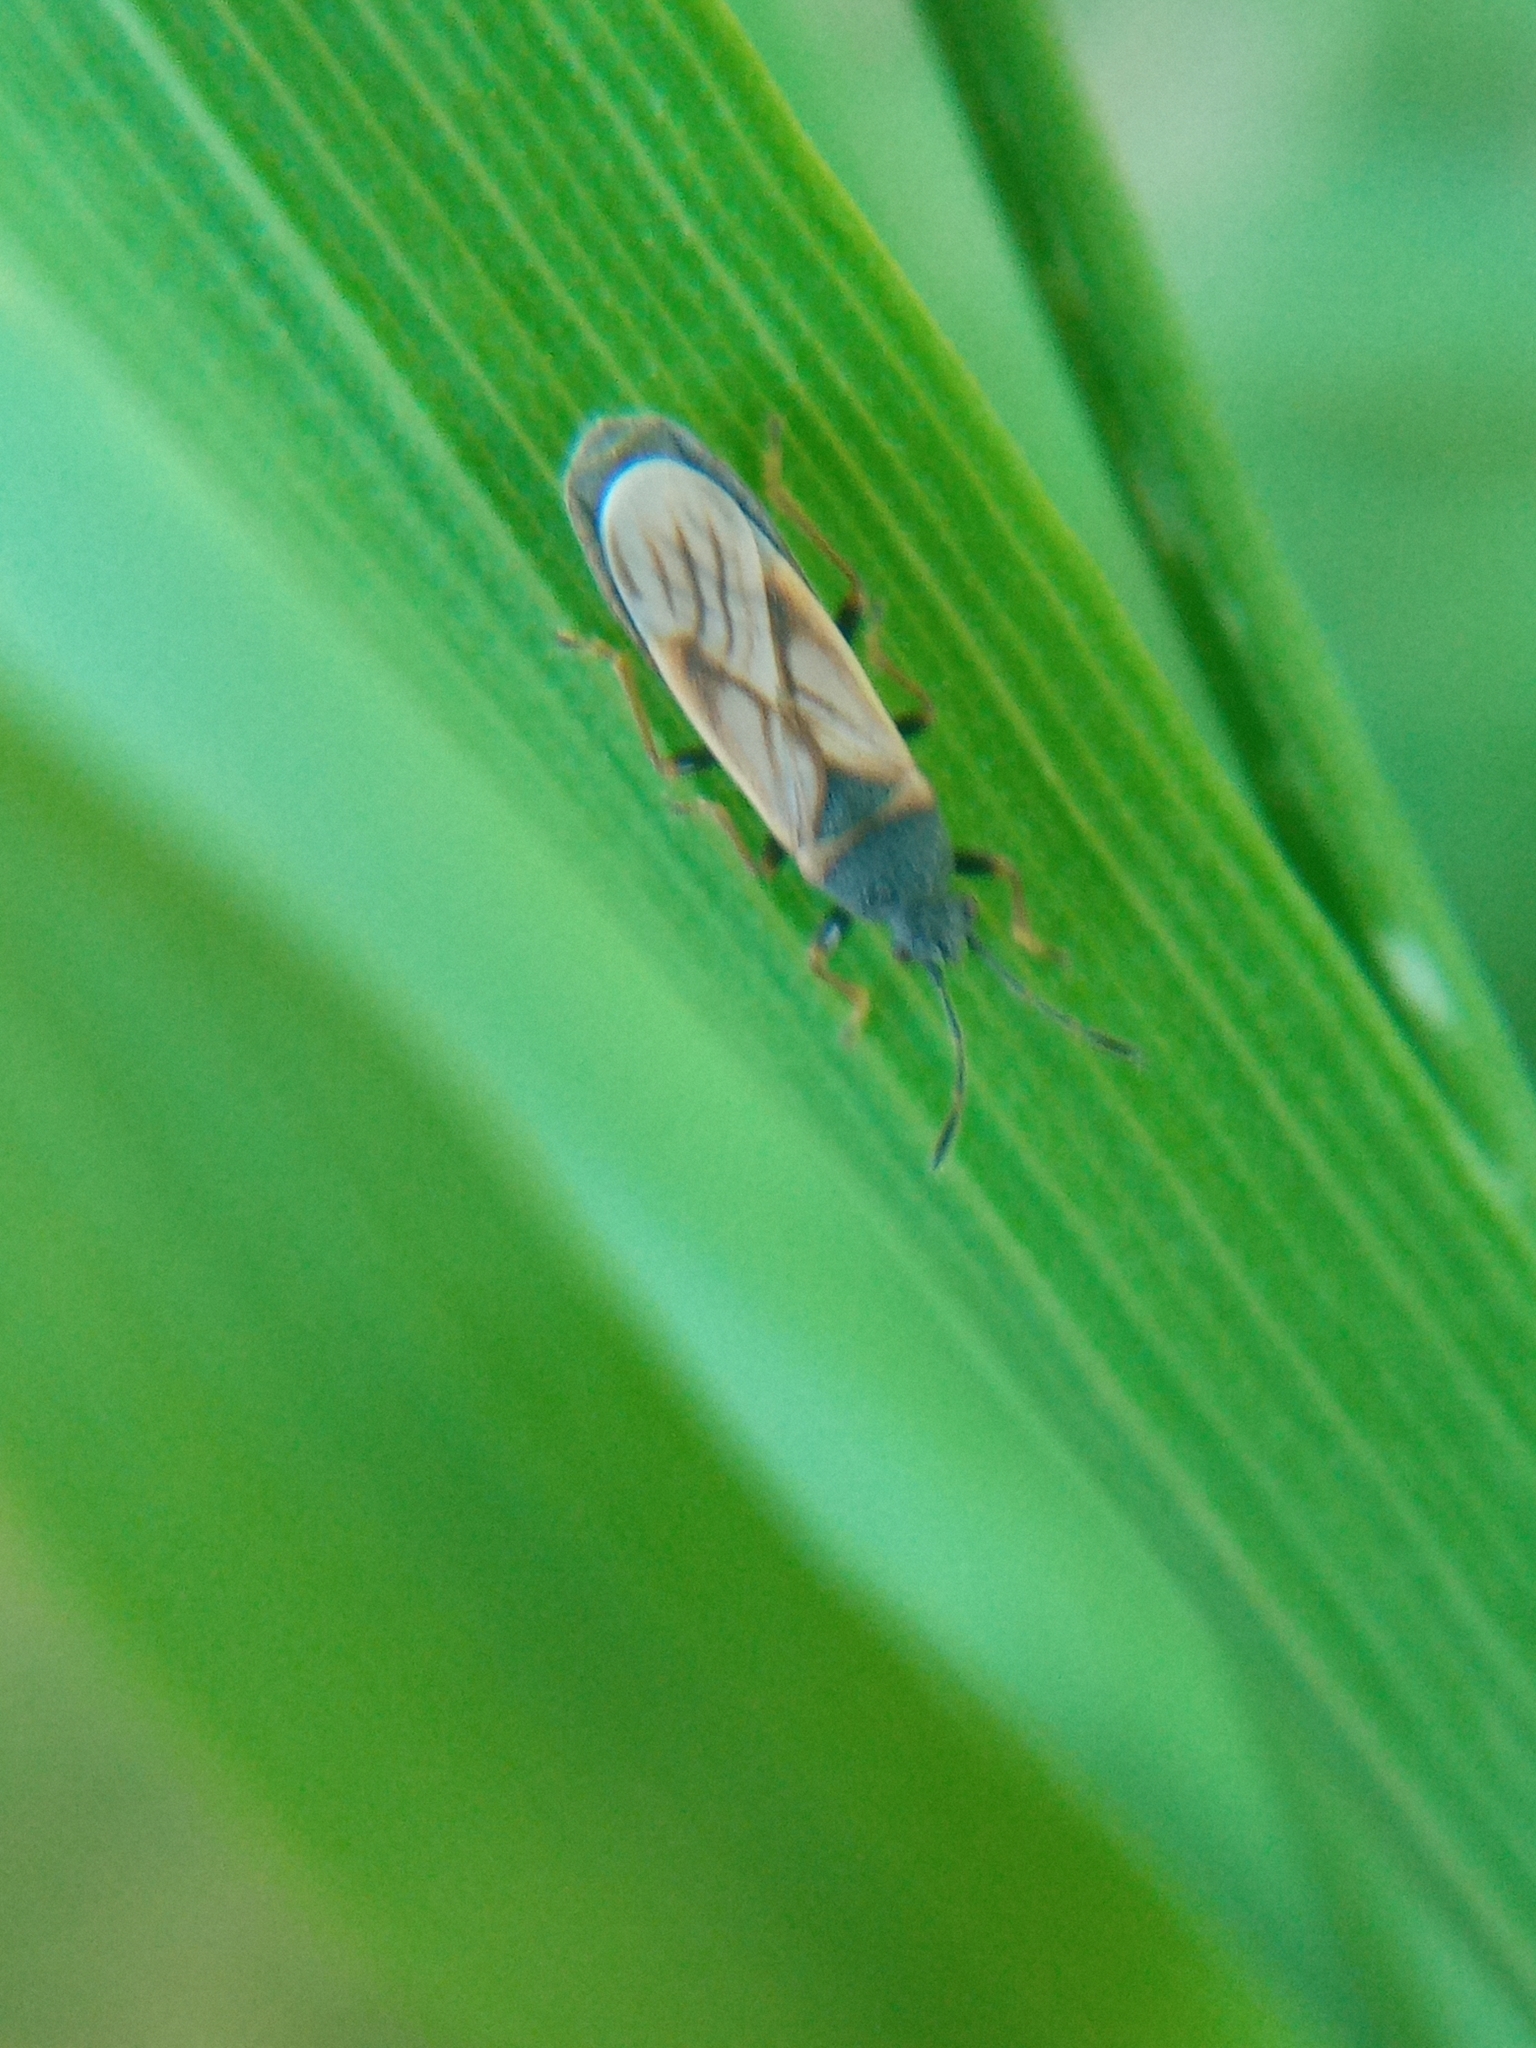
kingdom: Animalia
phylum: Arthropoda
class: Insecta
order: Hemiptera
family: Blissidae
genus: Ischnodemus
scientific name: Ischnodemus sabuleti
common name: European cinchbug
